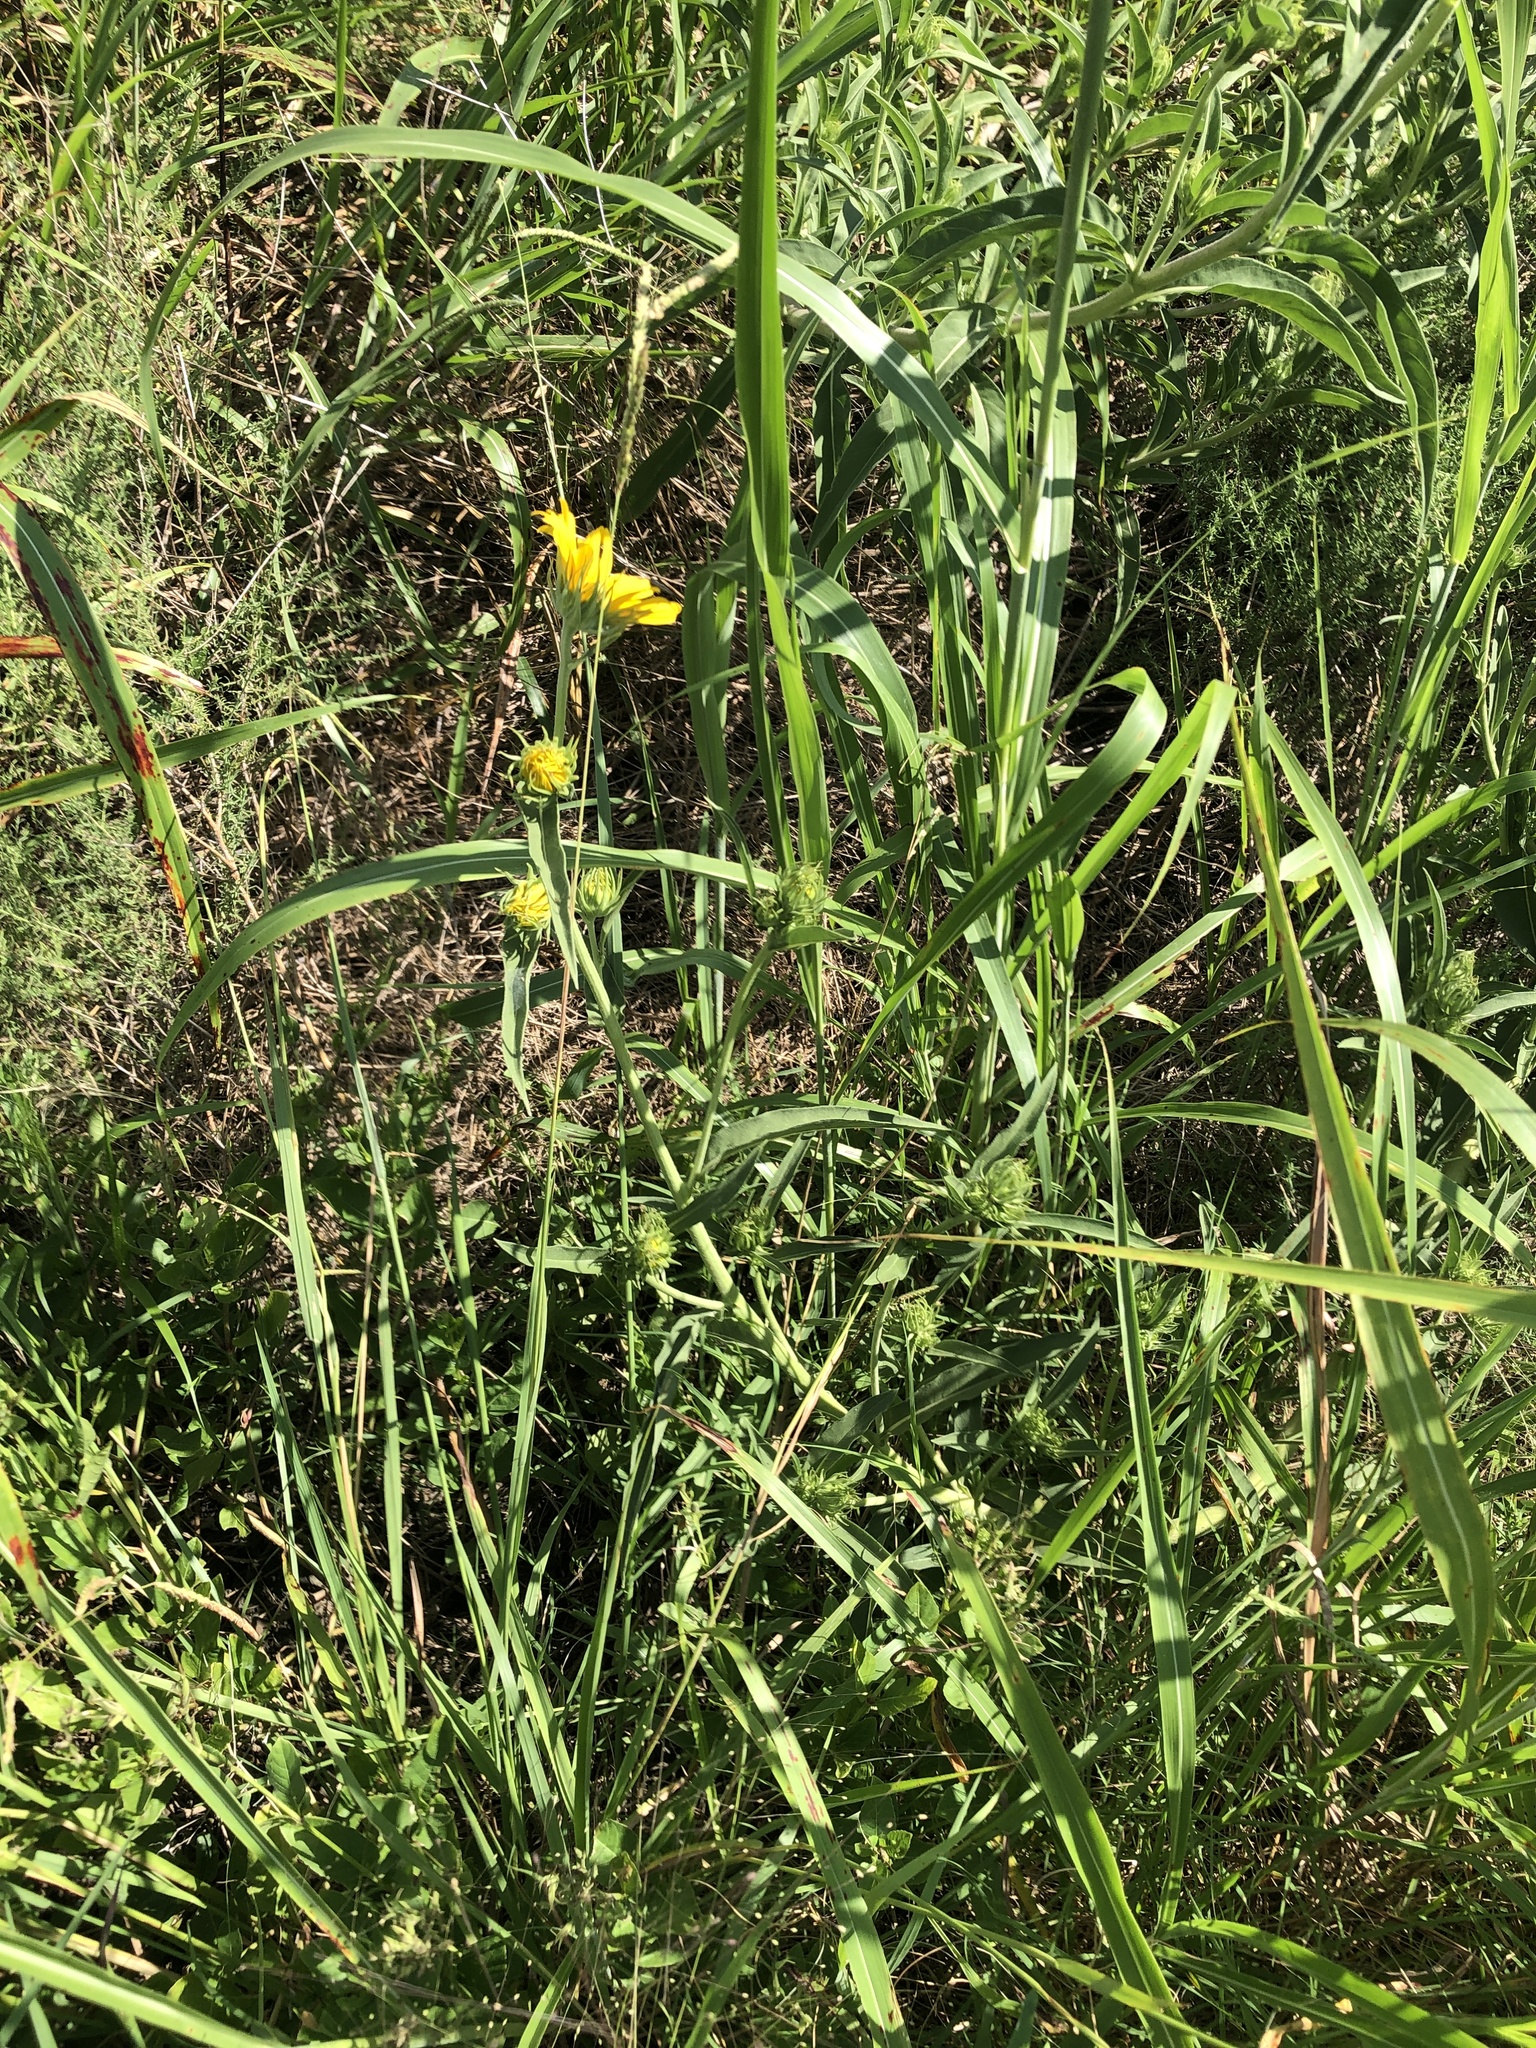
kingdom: Plantae
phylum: Tracheophyta
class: Magnoliopsida
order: Asterales
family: Asteraceae
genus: Helianthus
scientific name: Helianthus maximiliani
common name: Maximilian's sunflower
